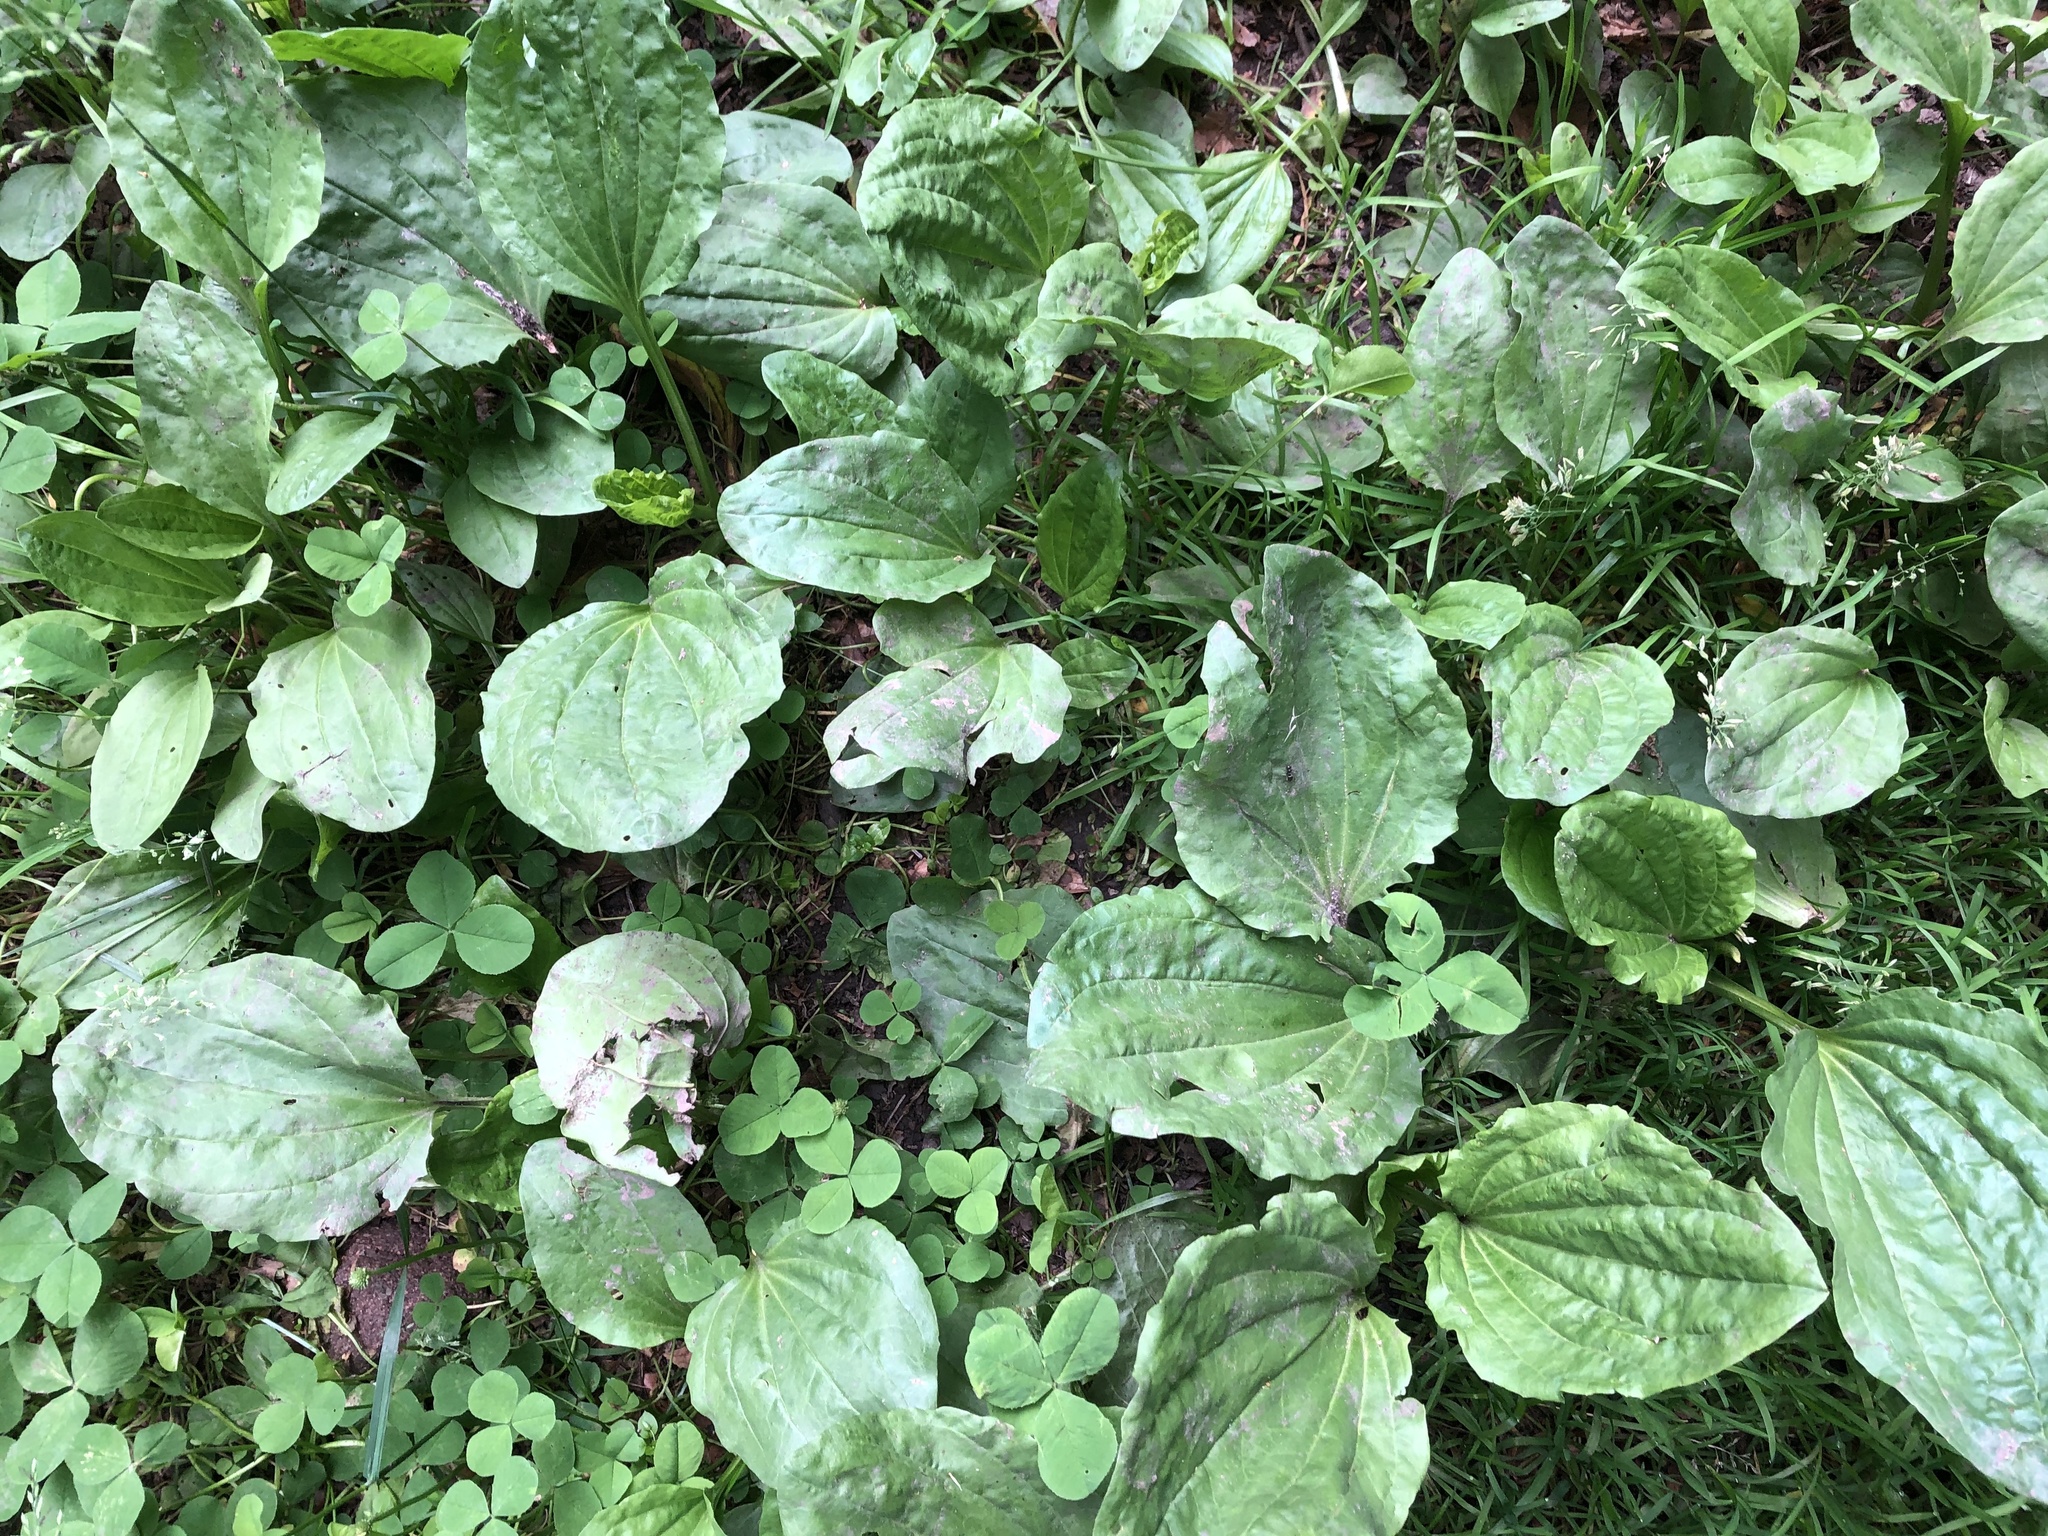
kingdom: Plantae
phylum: Tracheophyta
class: Magnoliopsida
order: Lamiales
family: Plantaginaceae
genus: Plantago
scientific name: Plantago major
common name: Common plantain
